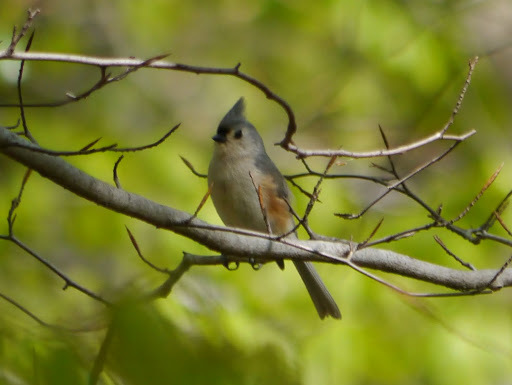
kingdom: Animalia
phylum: Chordata
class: Aves
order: Passeriformes
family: Paridae
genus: Baeolophus
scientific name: Baeolophus bicolor
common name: Tufted titmouse
